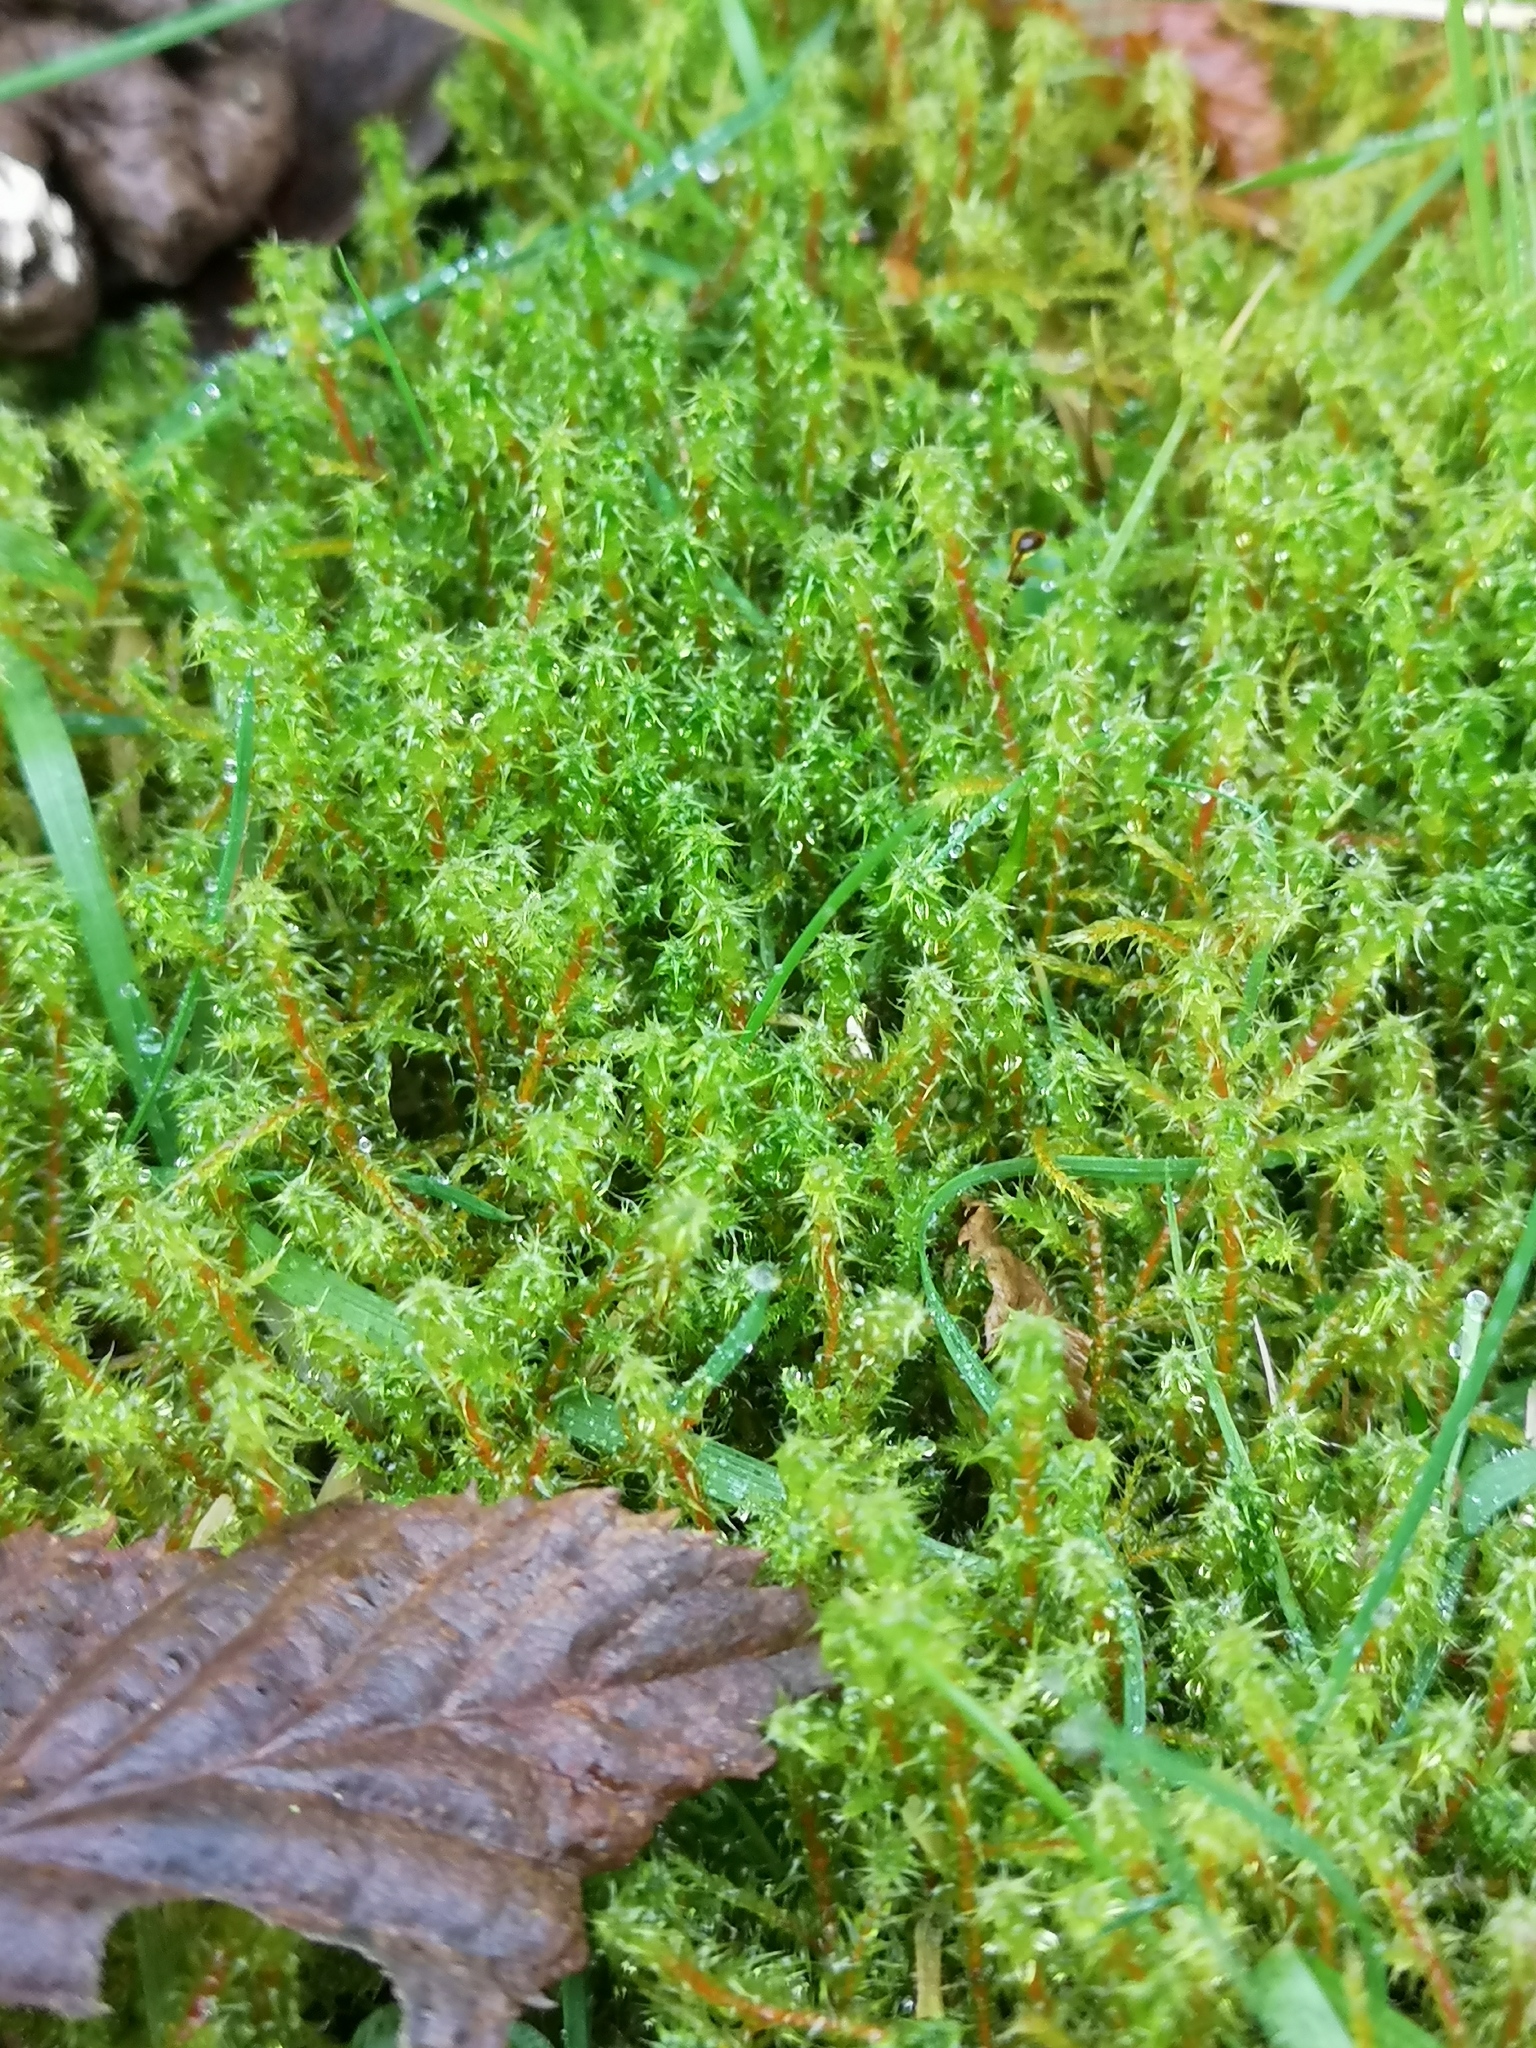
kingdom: Plantae
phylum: Bryophyta
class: Bryopsida
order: Hypnales
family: Hylocomiaceae
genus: Rhytidiadelphus
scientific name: Rhytidiadelphus squarrosus
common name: Springy turf-moss
